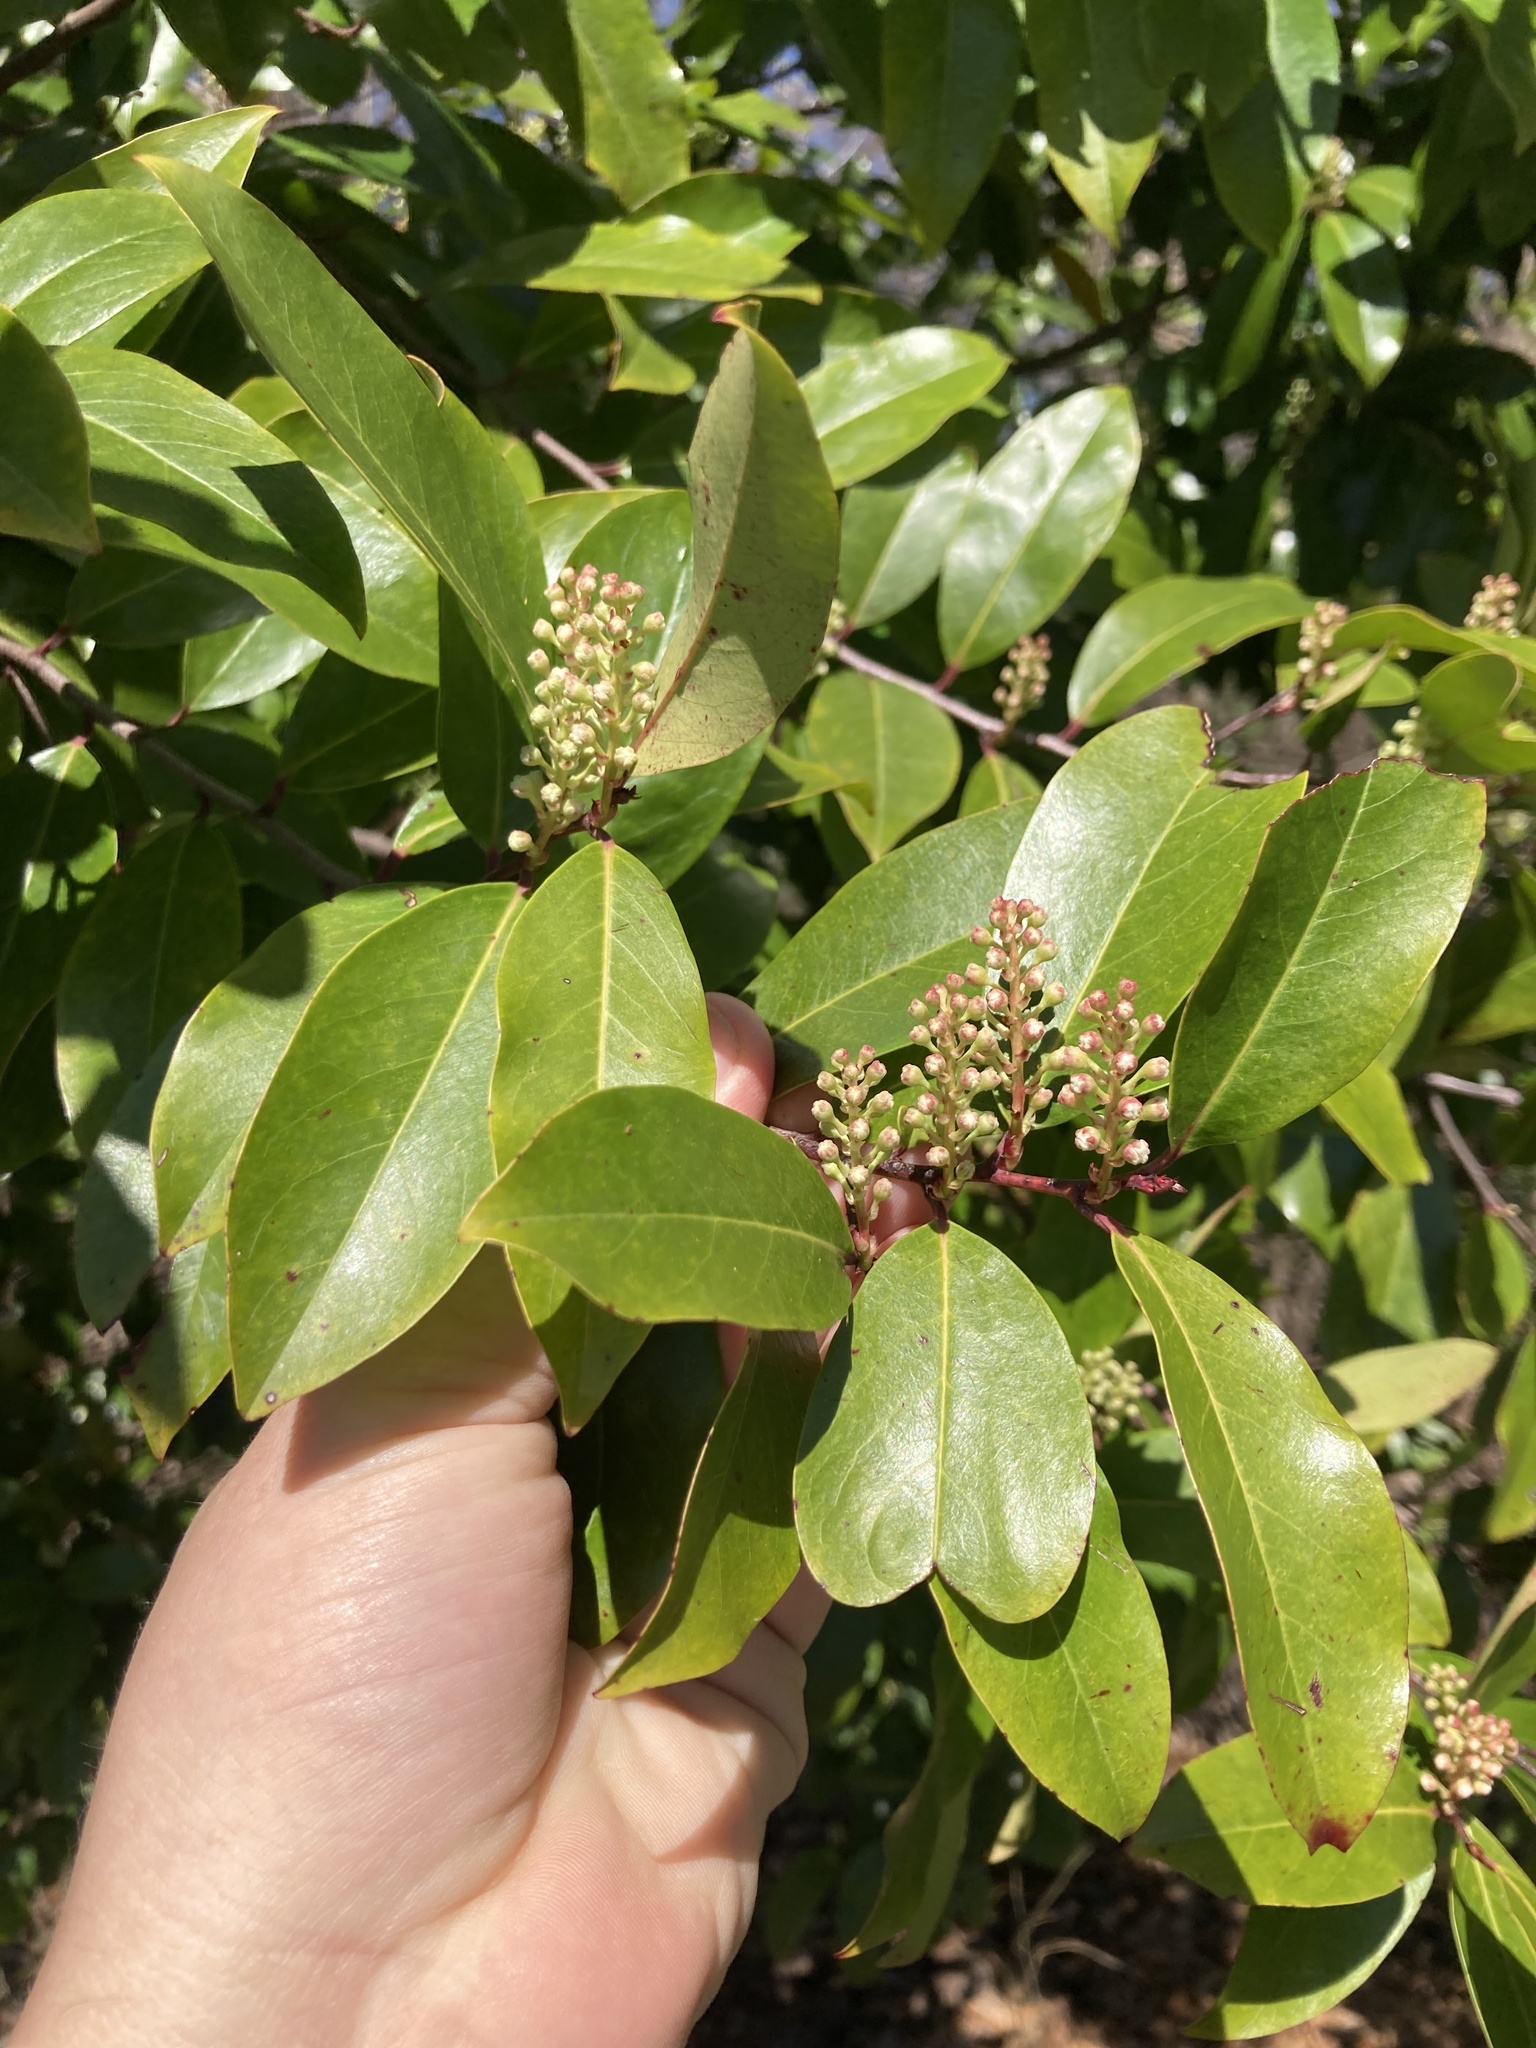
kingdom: Plantae
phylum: Tracheophyta
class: Magnoliopsida
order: Rosales
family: Rosaceae
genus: Prunus
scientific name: Prunus caroliniana
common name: Carolina laurel cherry
